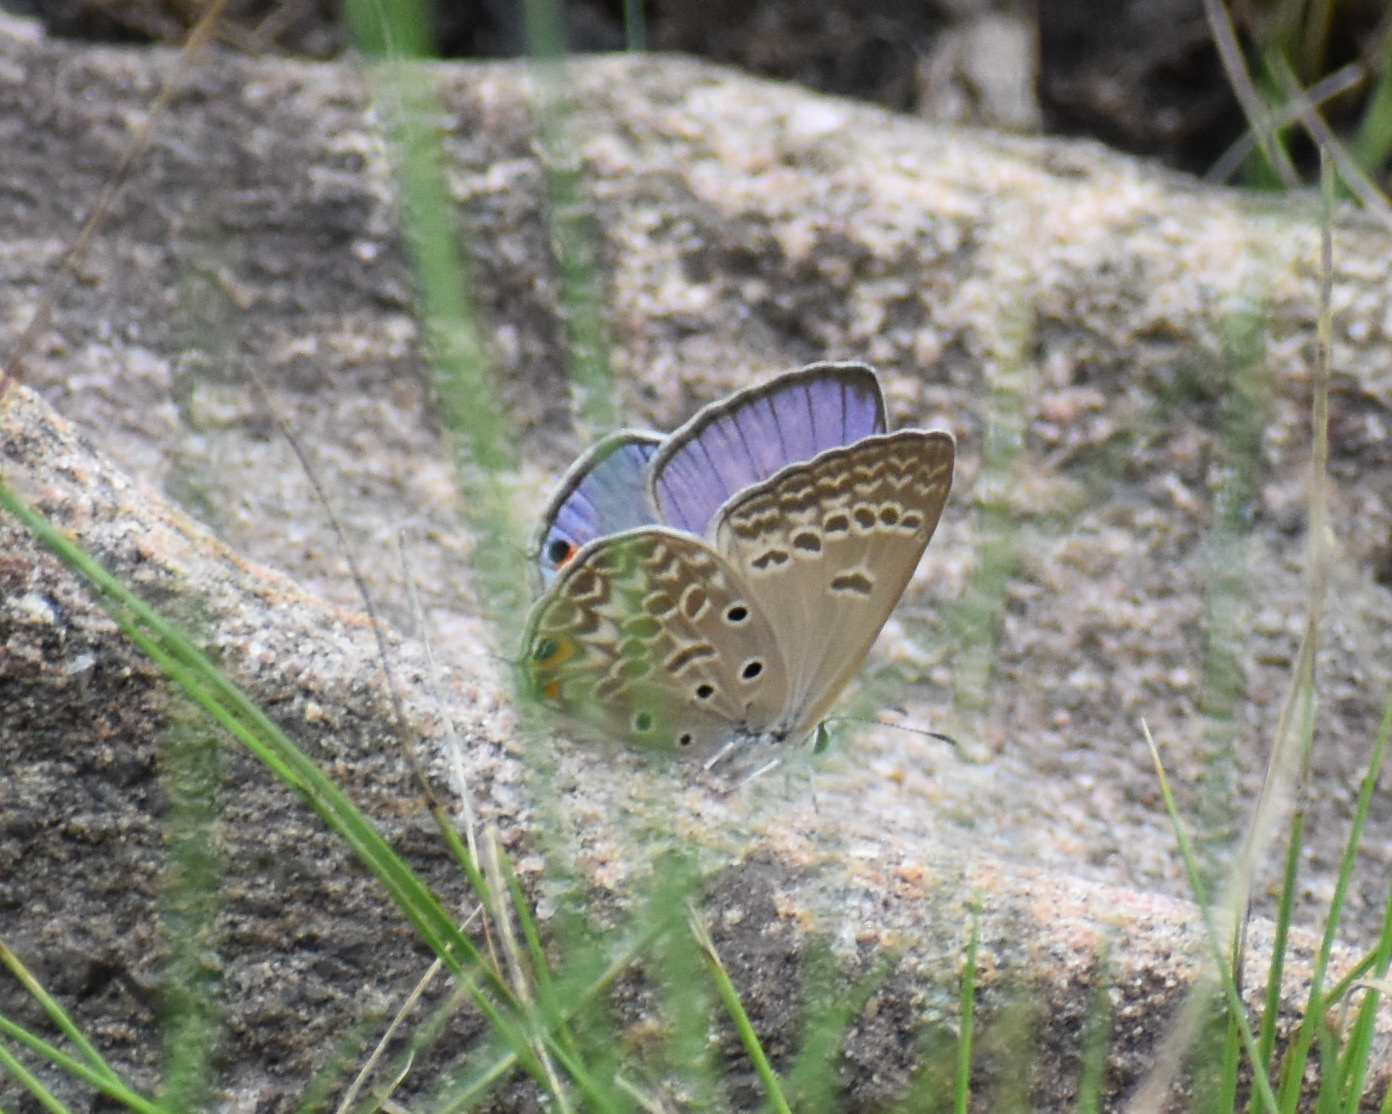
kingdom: Animalia
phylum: Arthropoda
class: Insecta
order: Lepidoptera
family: Lycaenidae
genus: Lepidochrysops
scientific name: Lepidochrysops patricia
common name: Patricia blue
